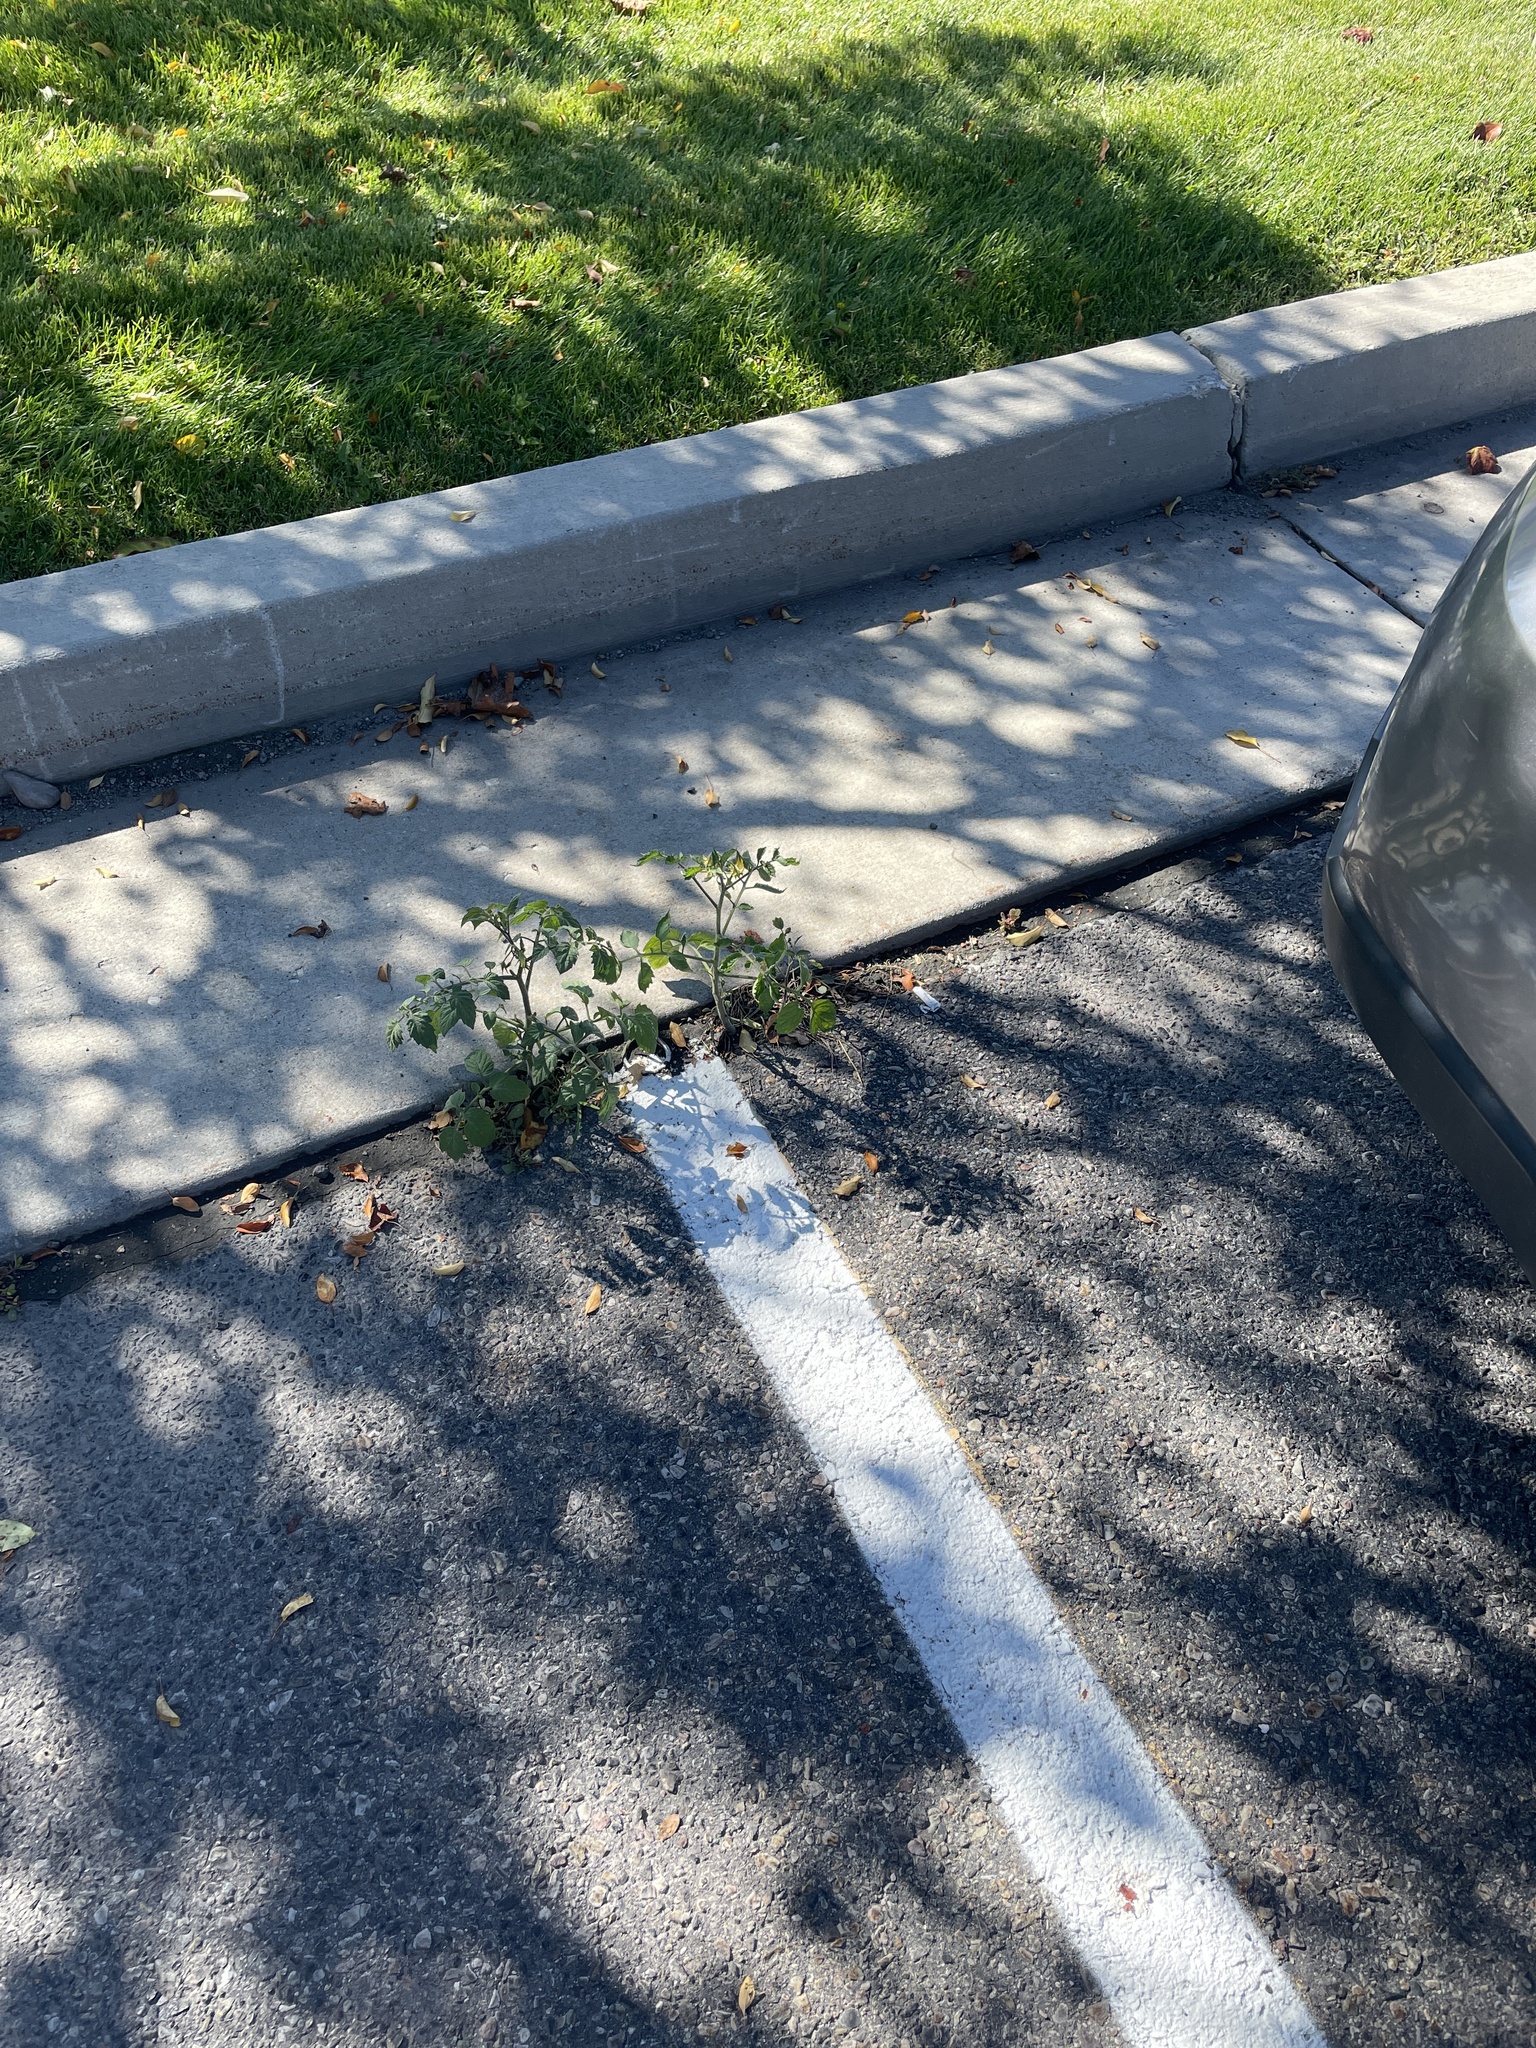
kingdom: Plantae
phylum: Tracheophyta
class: Magnoliopsida
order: Solanales
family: Solanaceae
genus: Solanum
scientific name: Solanum lycopersicum
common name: Garden tomato
